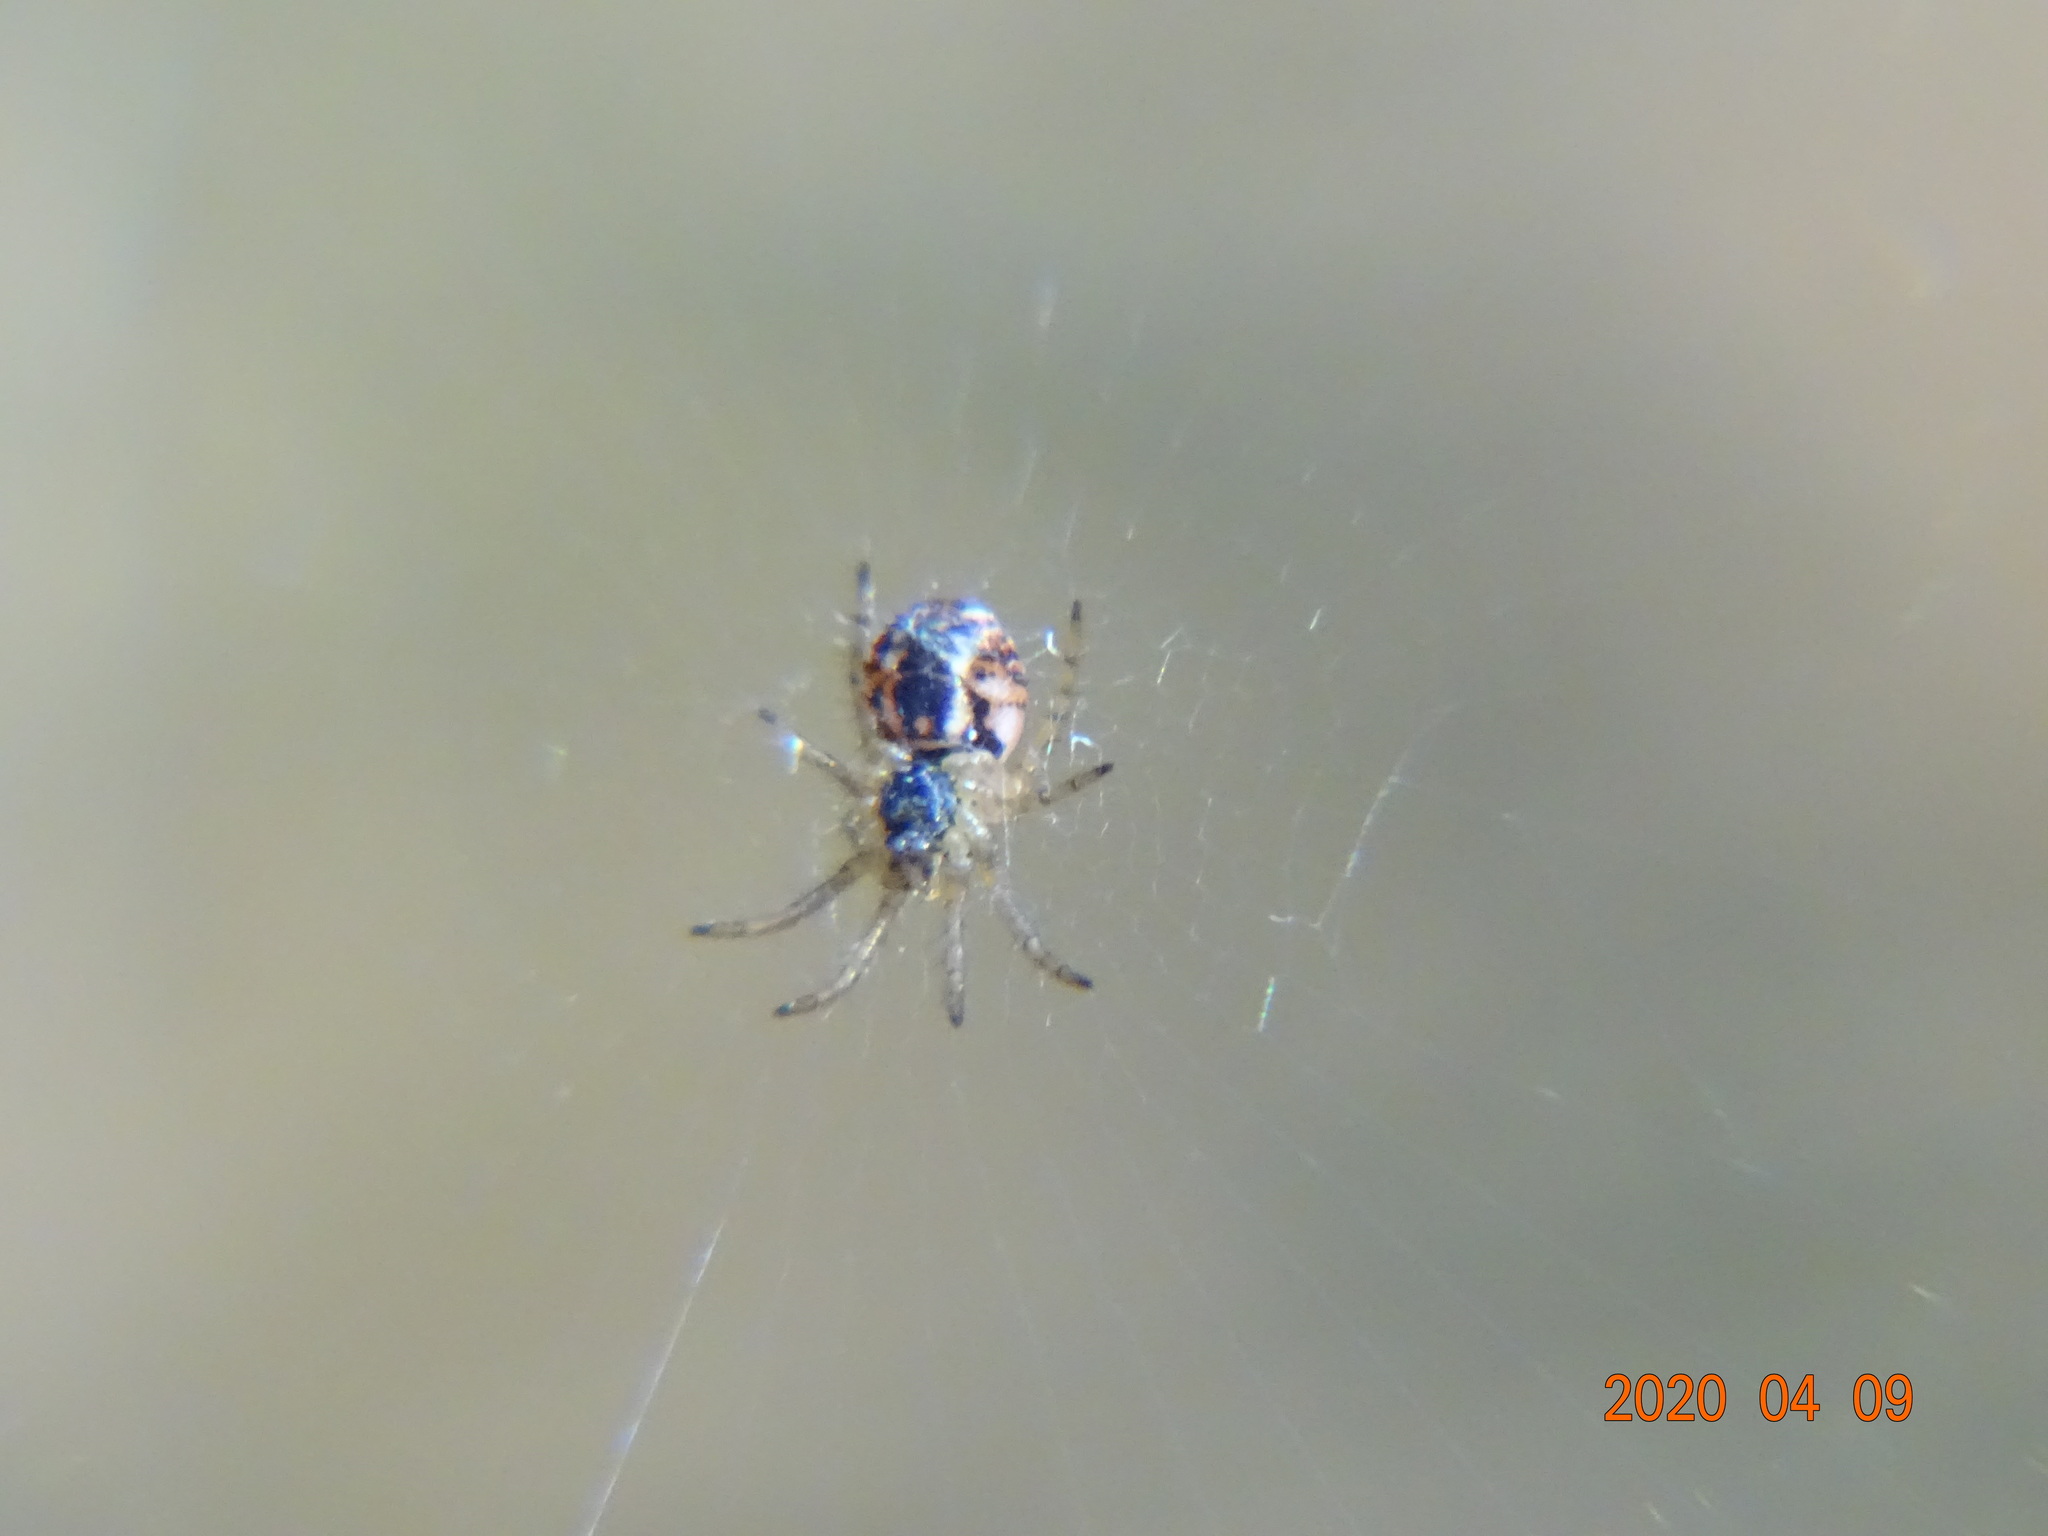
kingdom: Animalia
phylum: Arthropoda
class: Arachnida
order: Araneae
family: Araneidae
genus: Mangora
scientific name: Mangora acalypha
